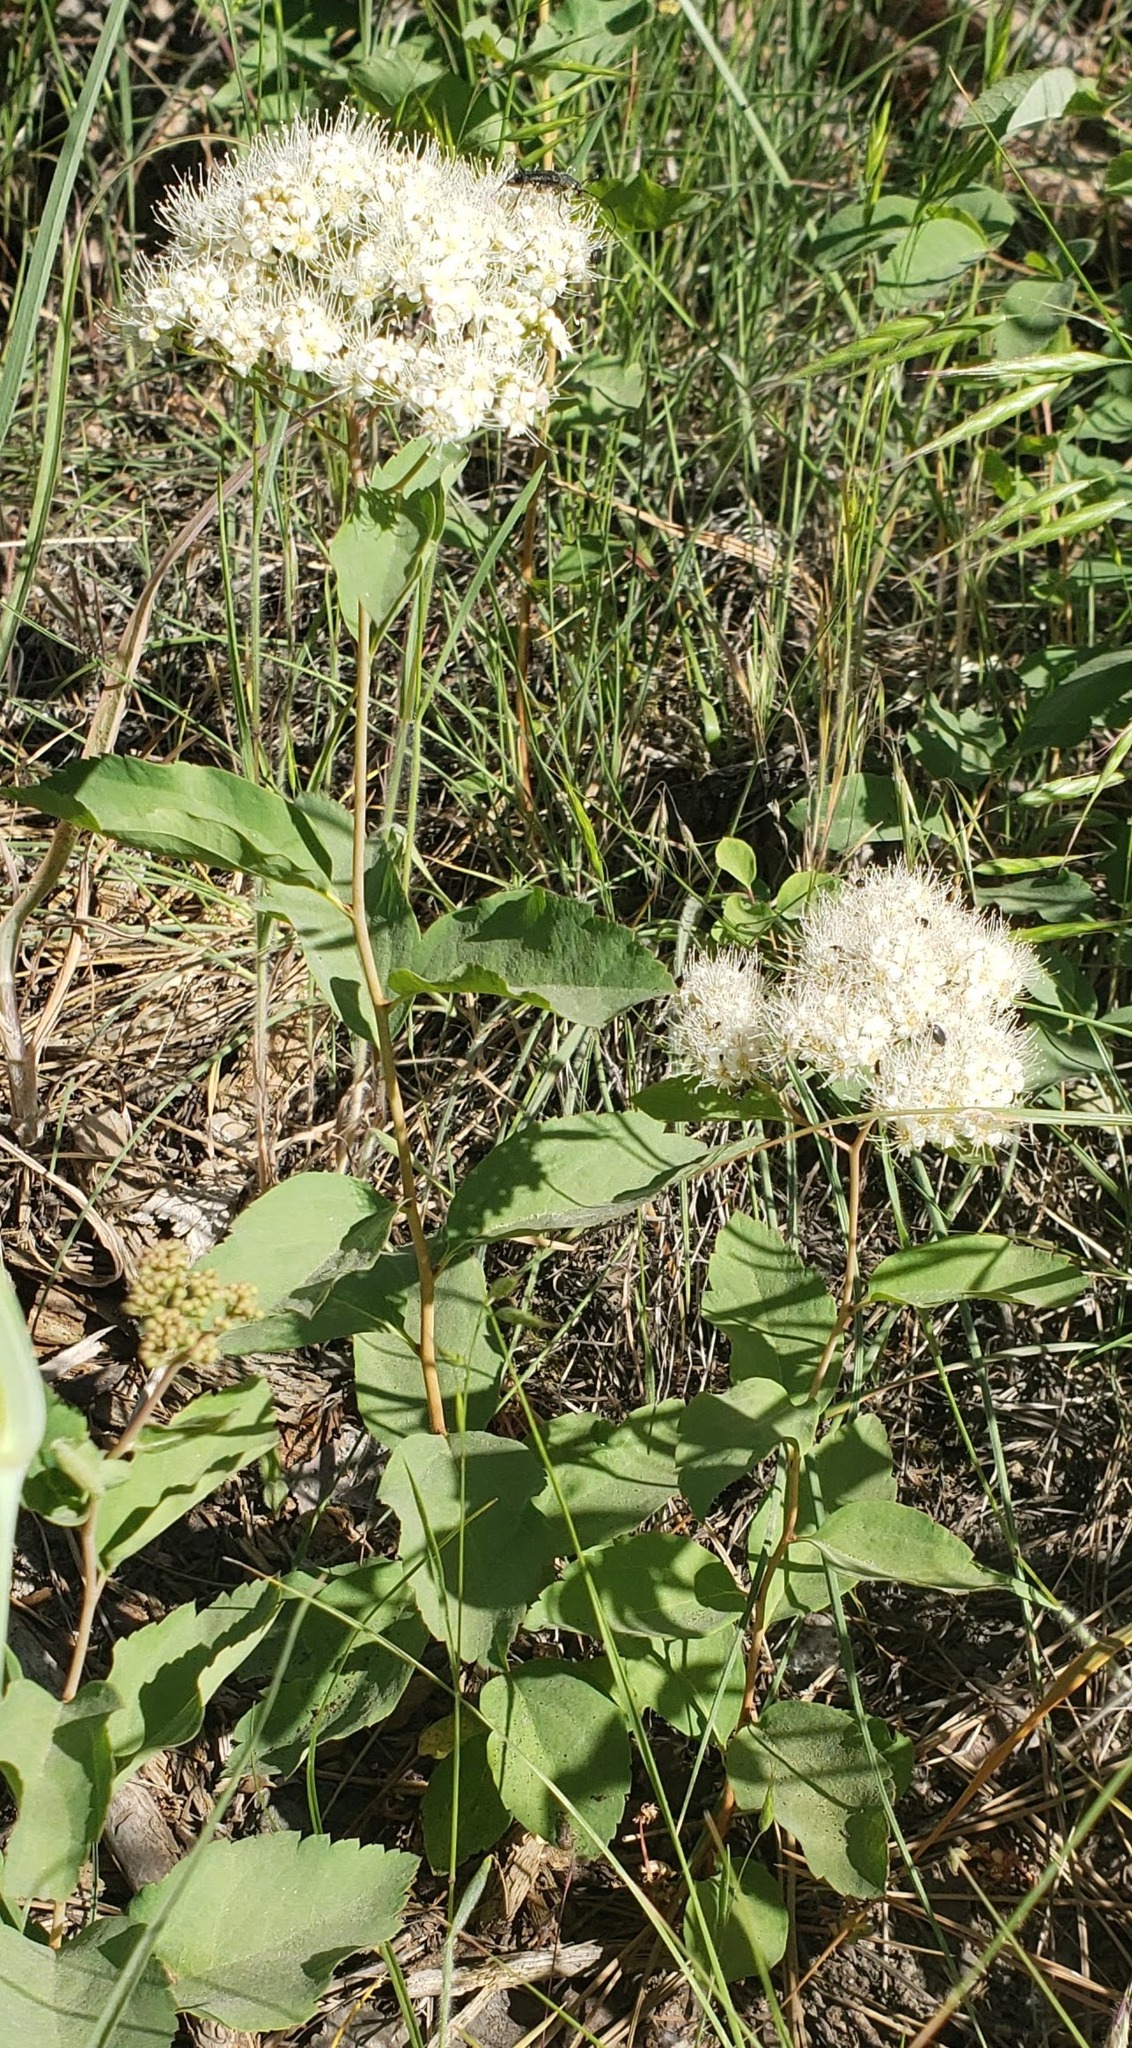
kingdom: Plantae
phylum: Tracheophyta
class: Magnoliopsida
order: Rosales
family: Rosaceae
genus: Spiraea
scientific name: Spiraea lucida
